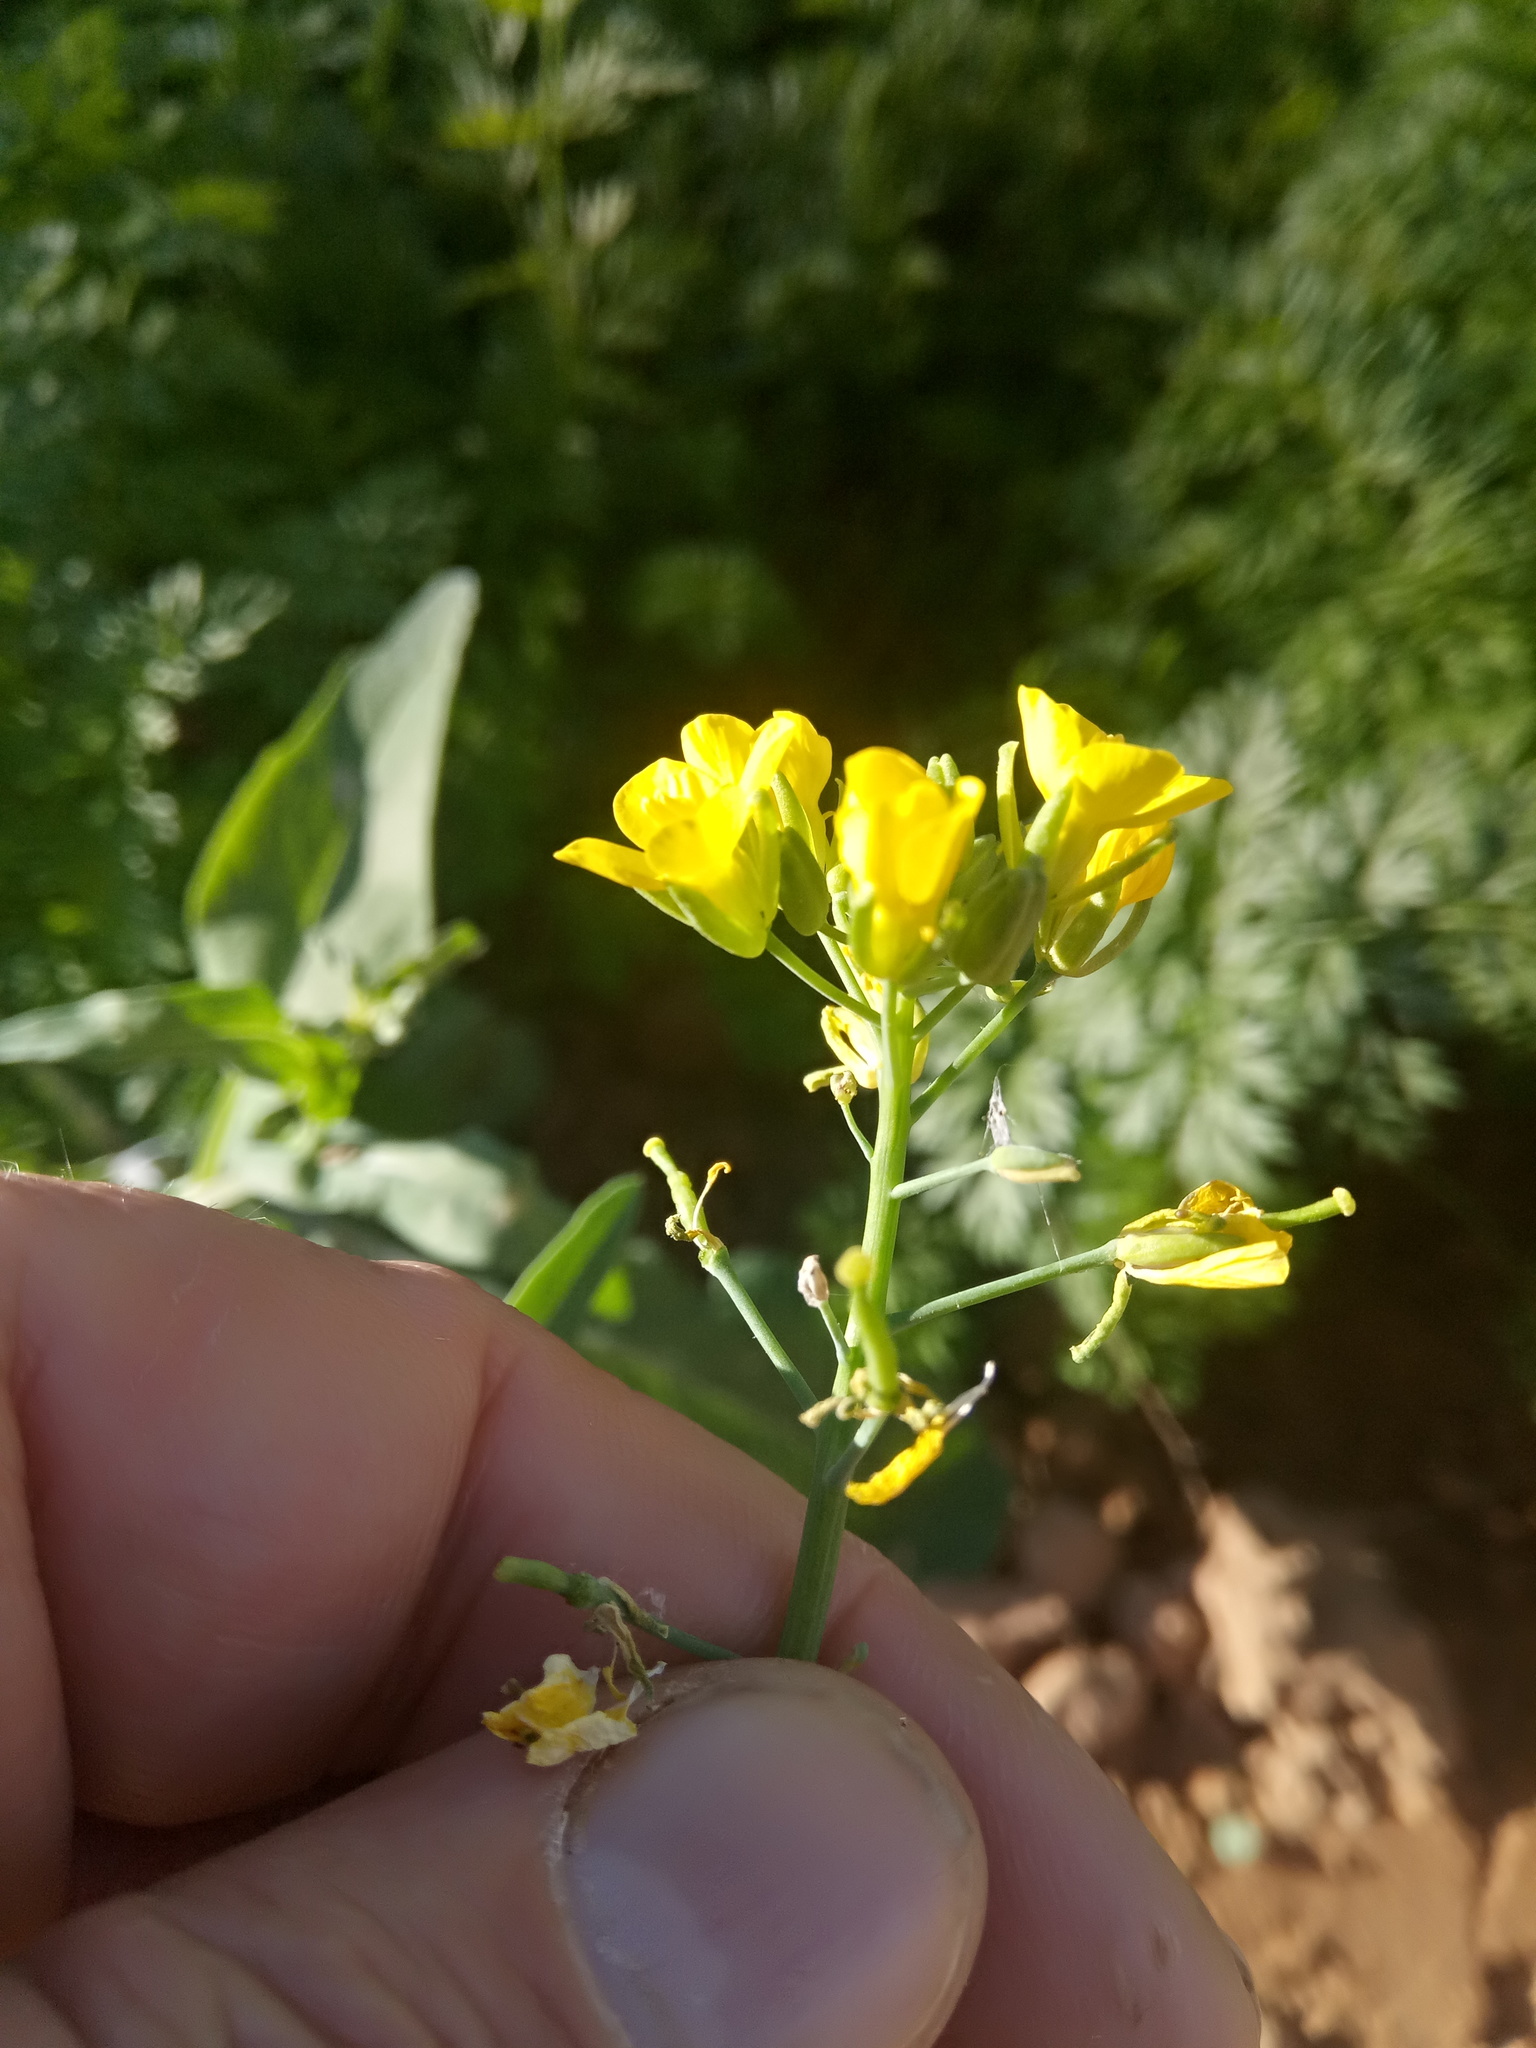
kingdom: Plantae
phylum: Tracheophyta
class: Magnoliopsida
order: Brassicales
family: Brassicaceae
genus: Brassica
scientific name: Brassica napus
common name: Rape
